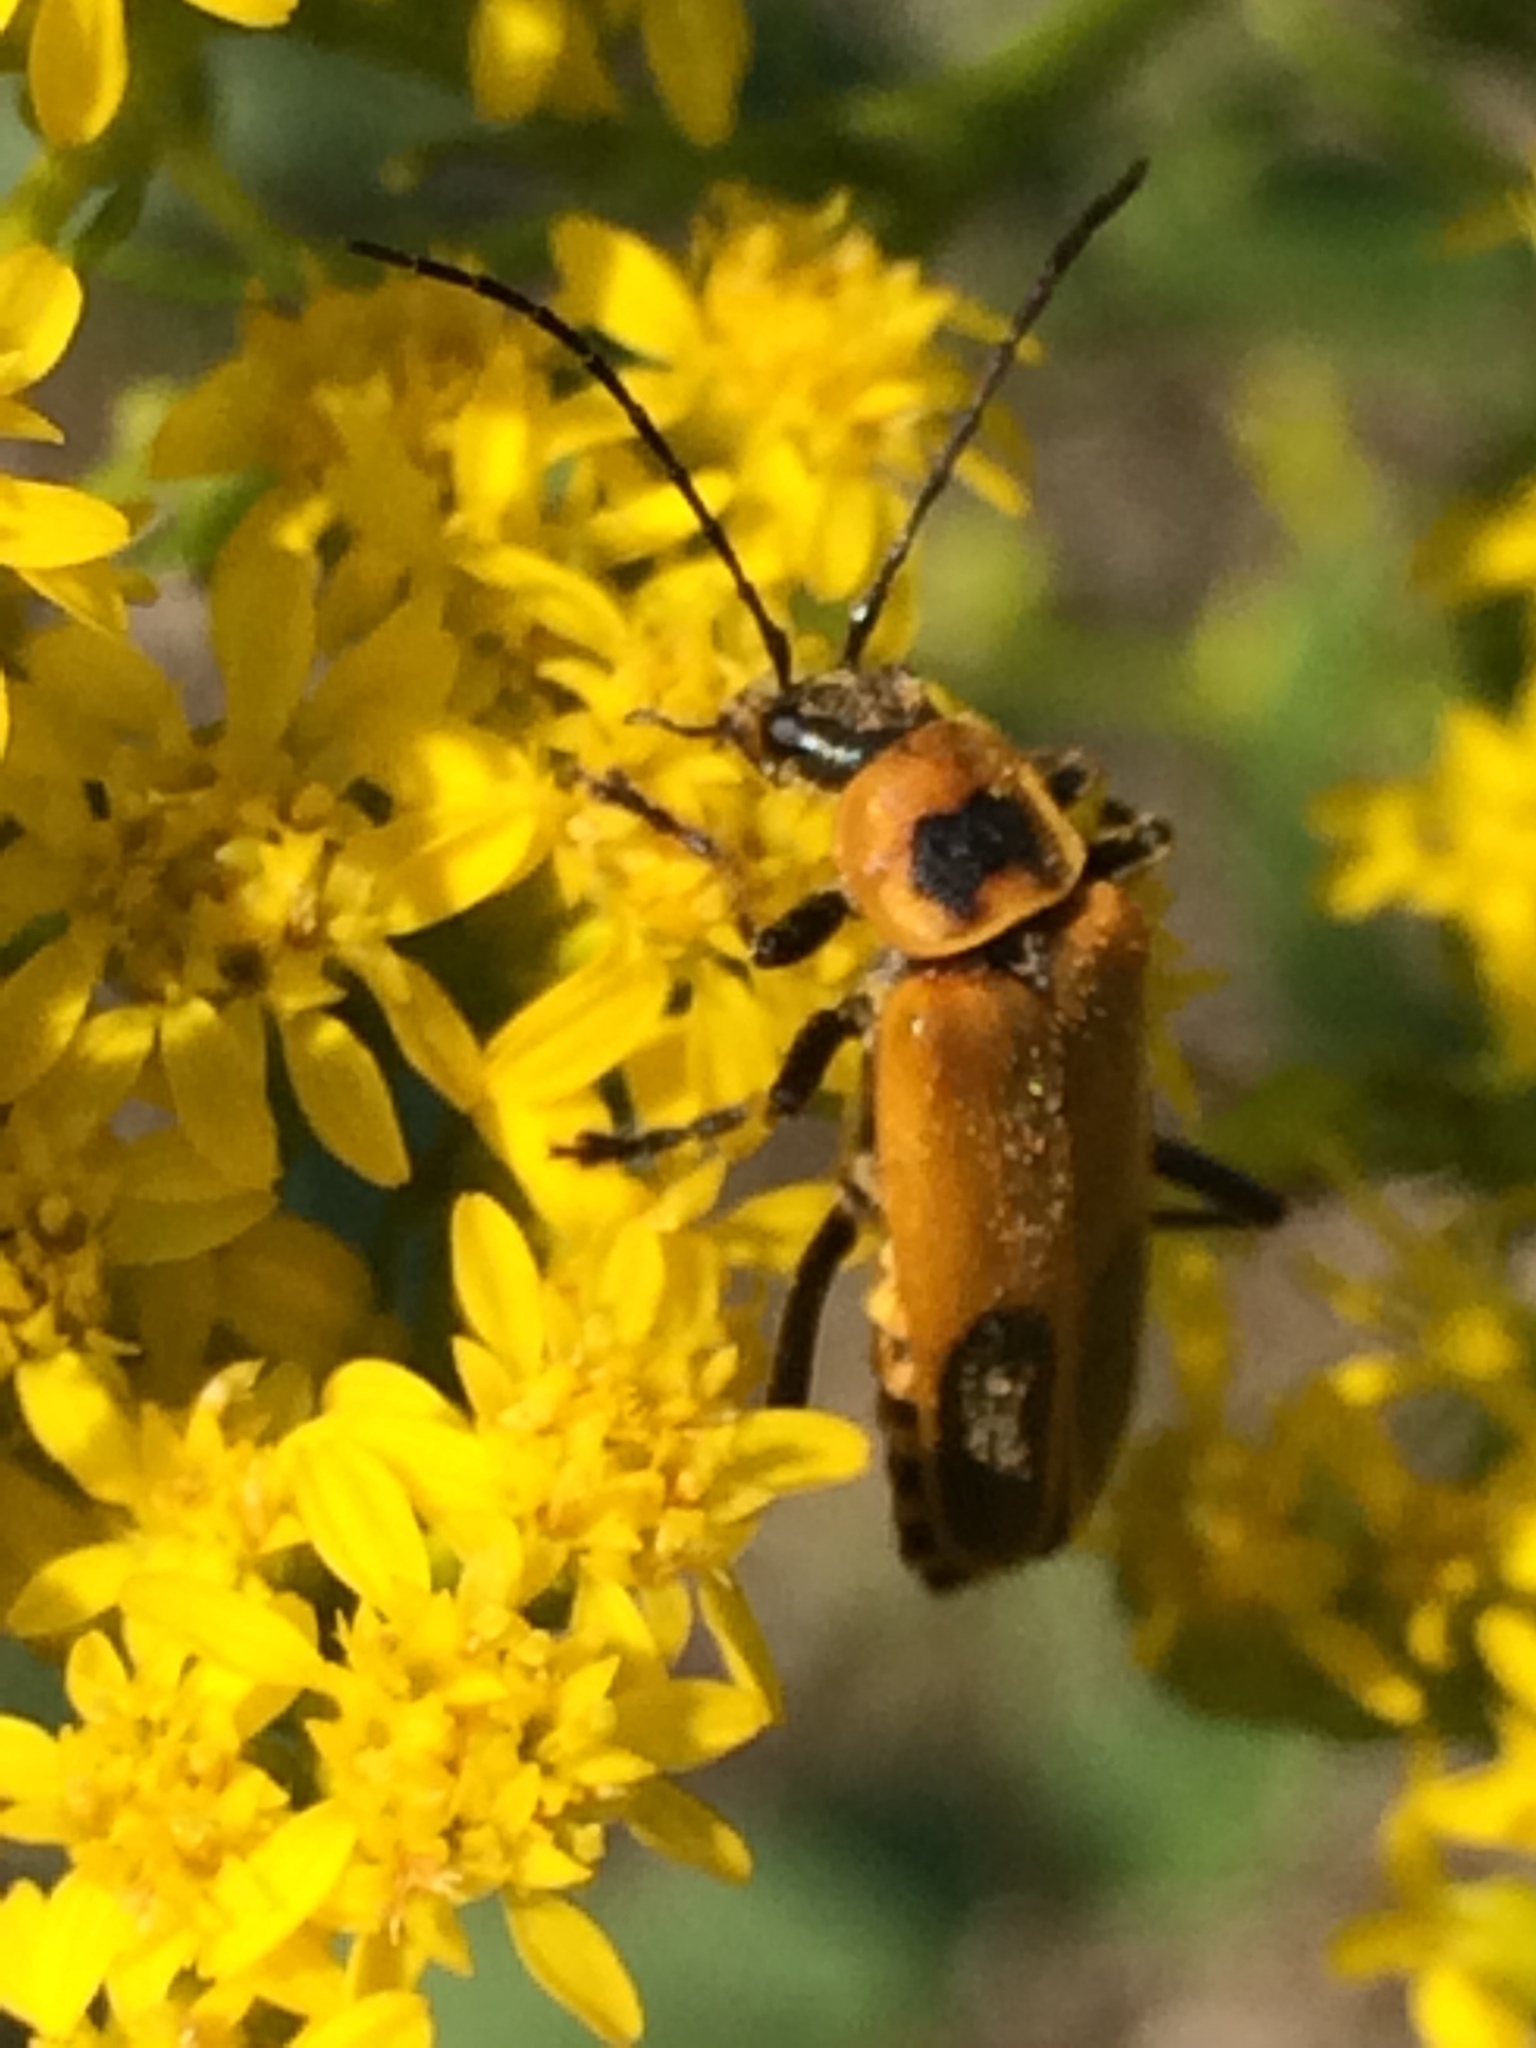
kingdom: Animalia
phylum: Arthropoda
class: Insecta
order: Coleoptera
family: Cantharidae
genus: Chauliognathus
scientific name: Chauliognathus pensylvanicus
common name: Goldenrod soldier beetle
